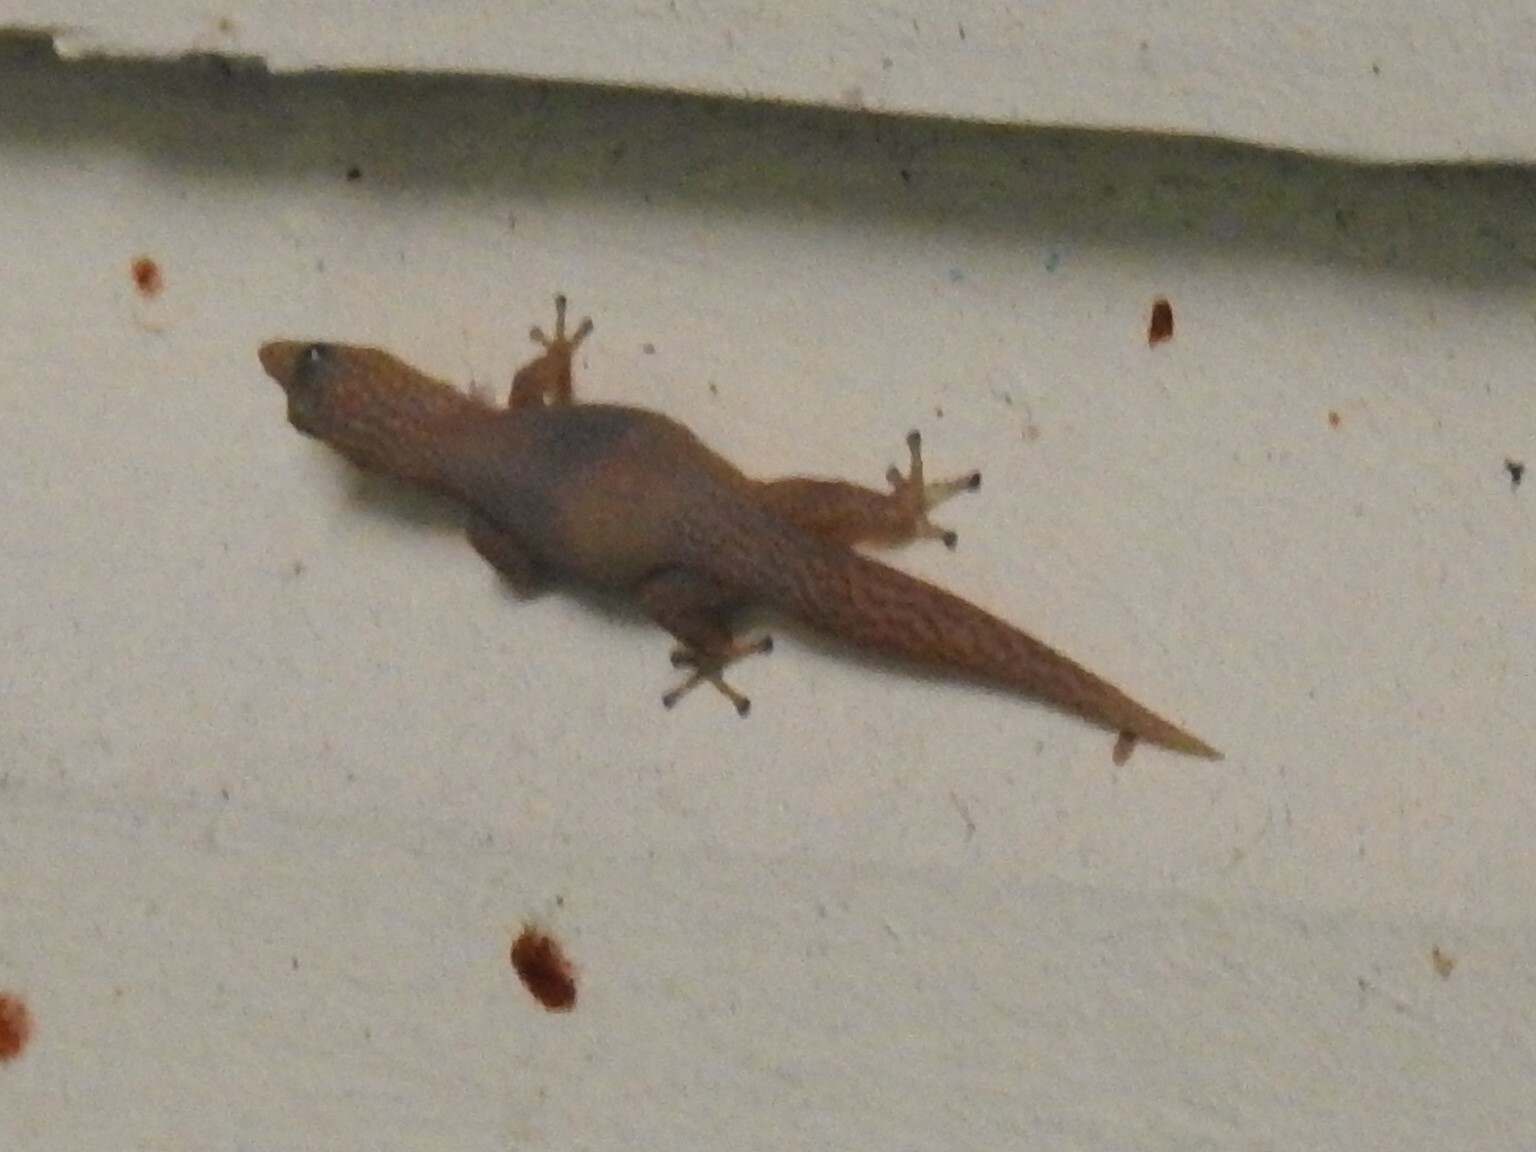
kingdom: Animalia
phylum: Chordata
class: Squamata
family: Sphaerodactylidae
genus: Sphaerodactylus
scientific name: Sphaerodactylus elegans
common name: Ashy gecko
